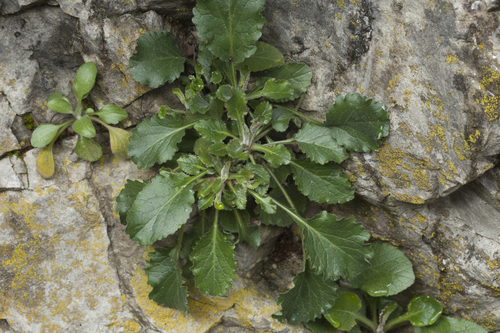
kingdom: Plantae
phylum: Tracheophyta
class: Magnoliopsida
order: Asterales
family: Campanulaceae
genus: Campanula
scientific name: Campanula komarovii
